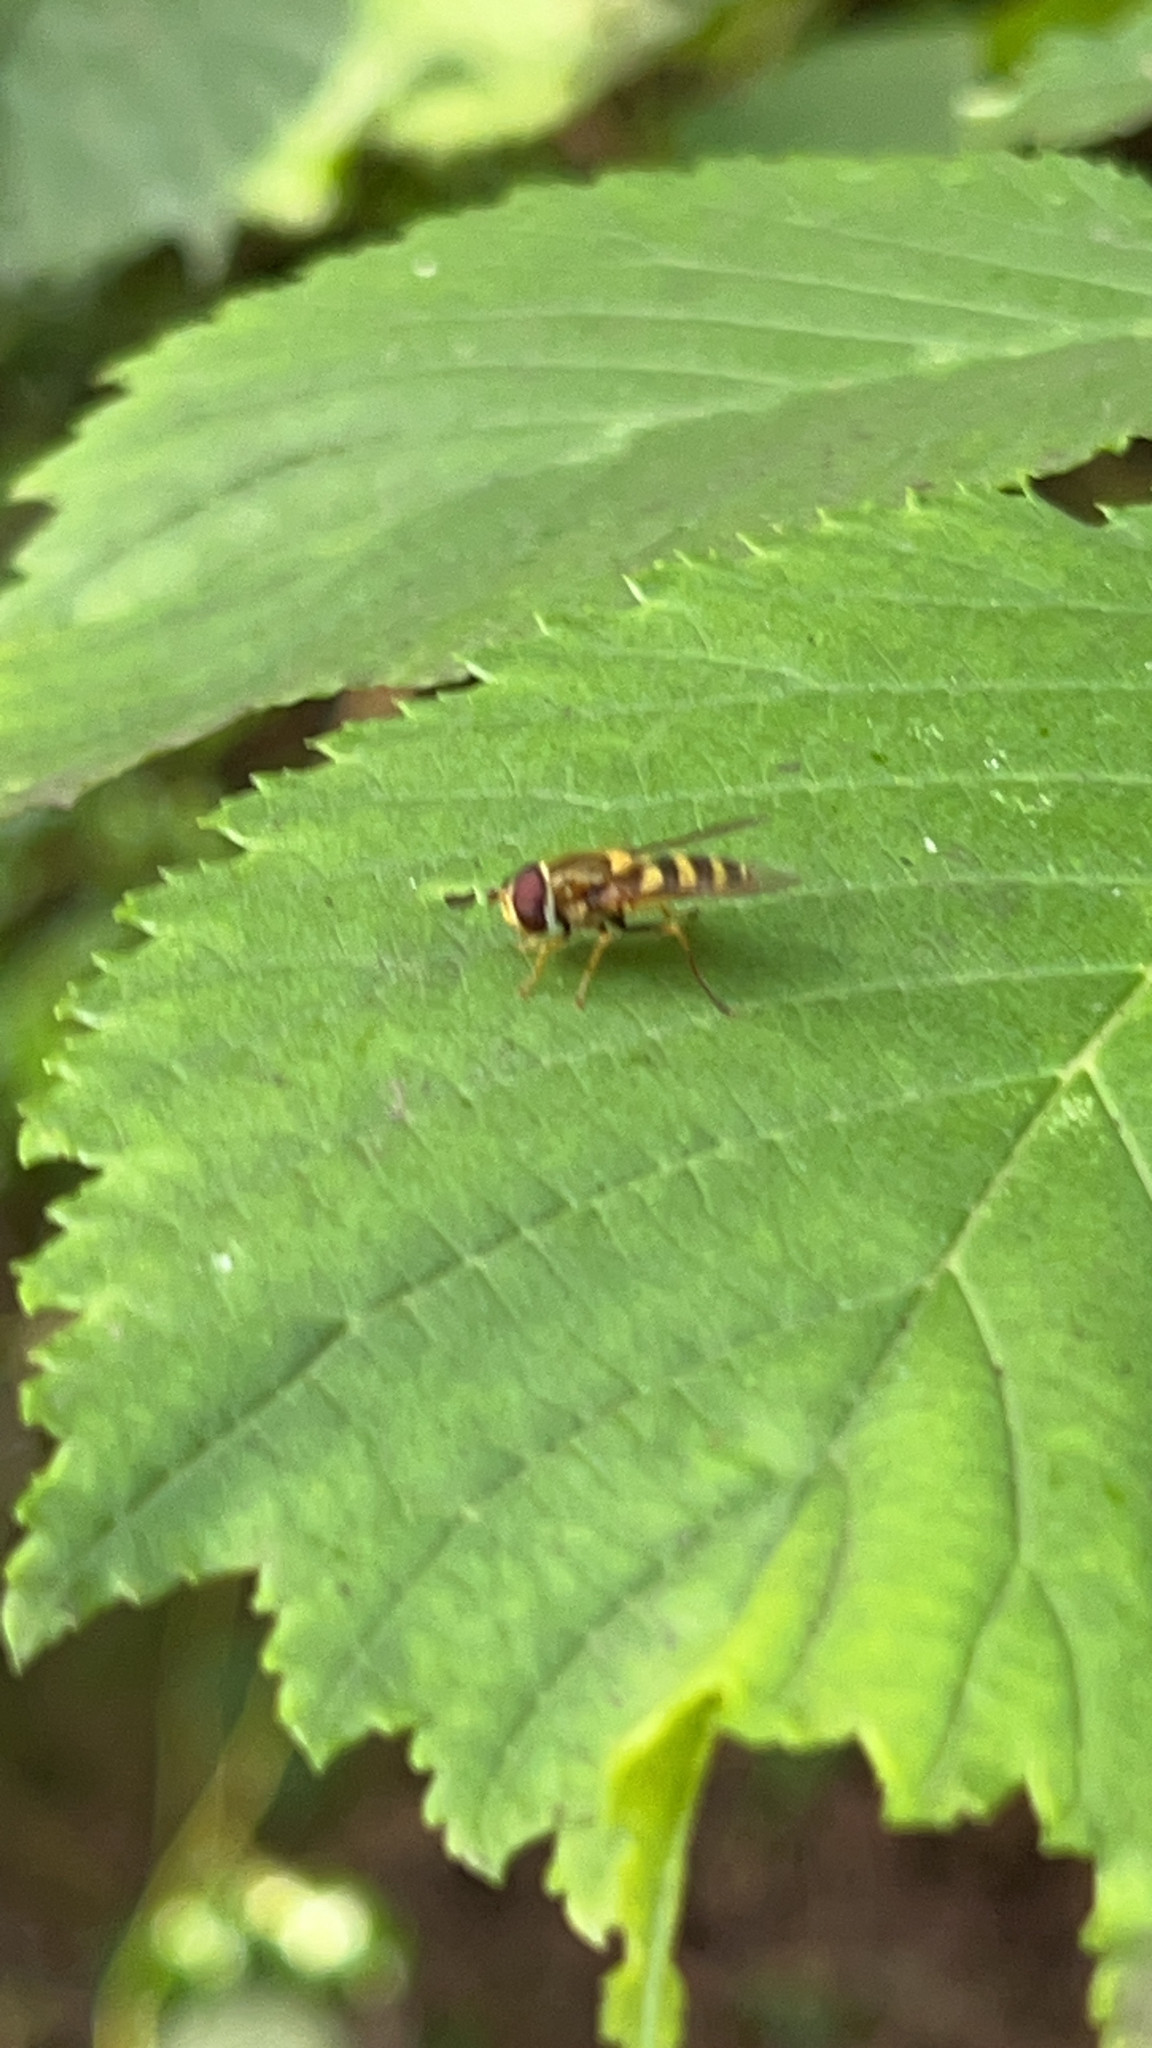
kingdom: Animalia
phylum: Arthropoda
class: Insecta
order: Diptera
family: Syrphidae
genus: Syrphus
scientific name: Syrphus
